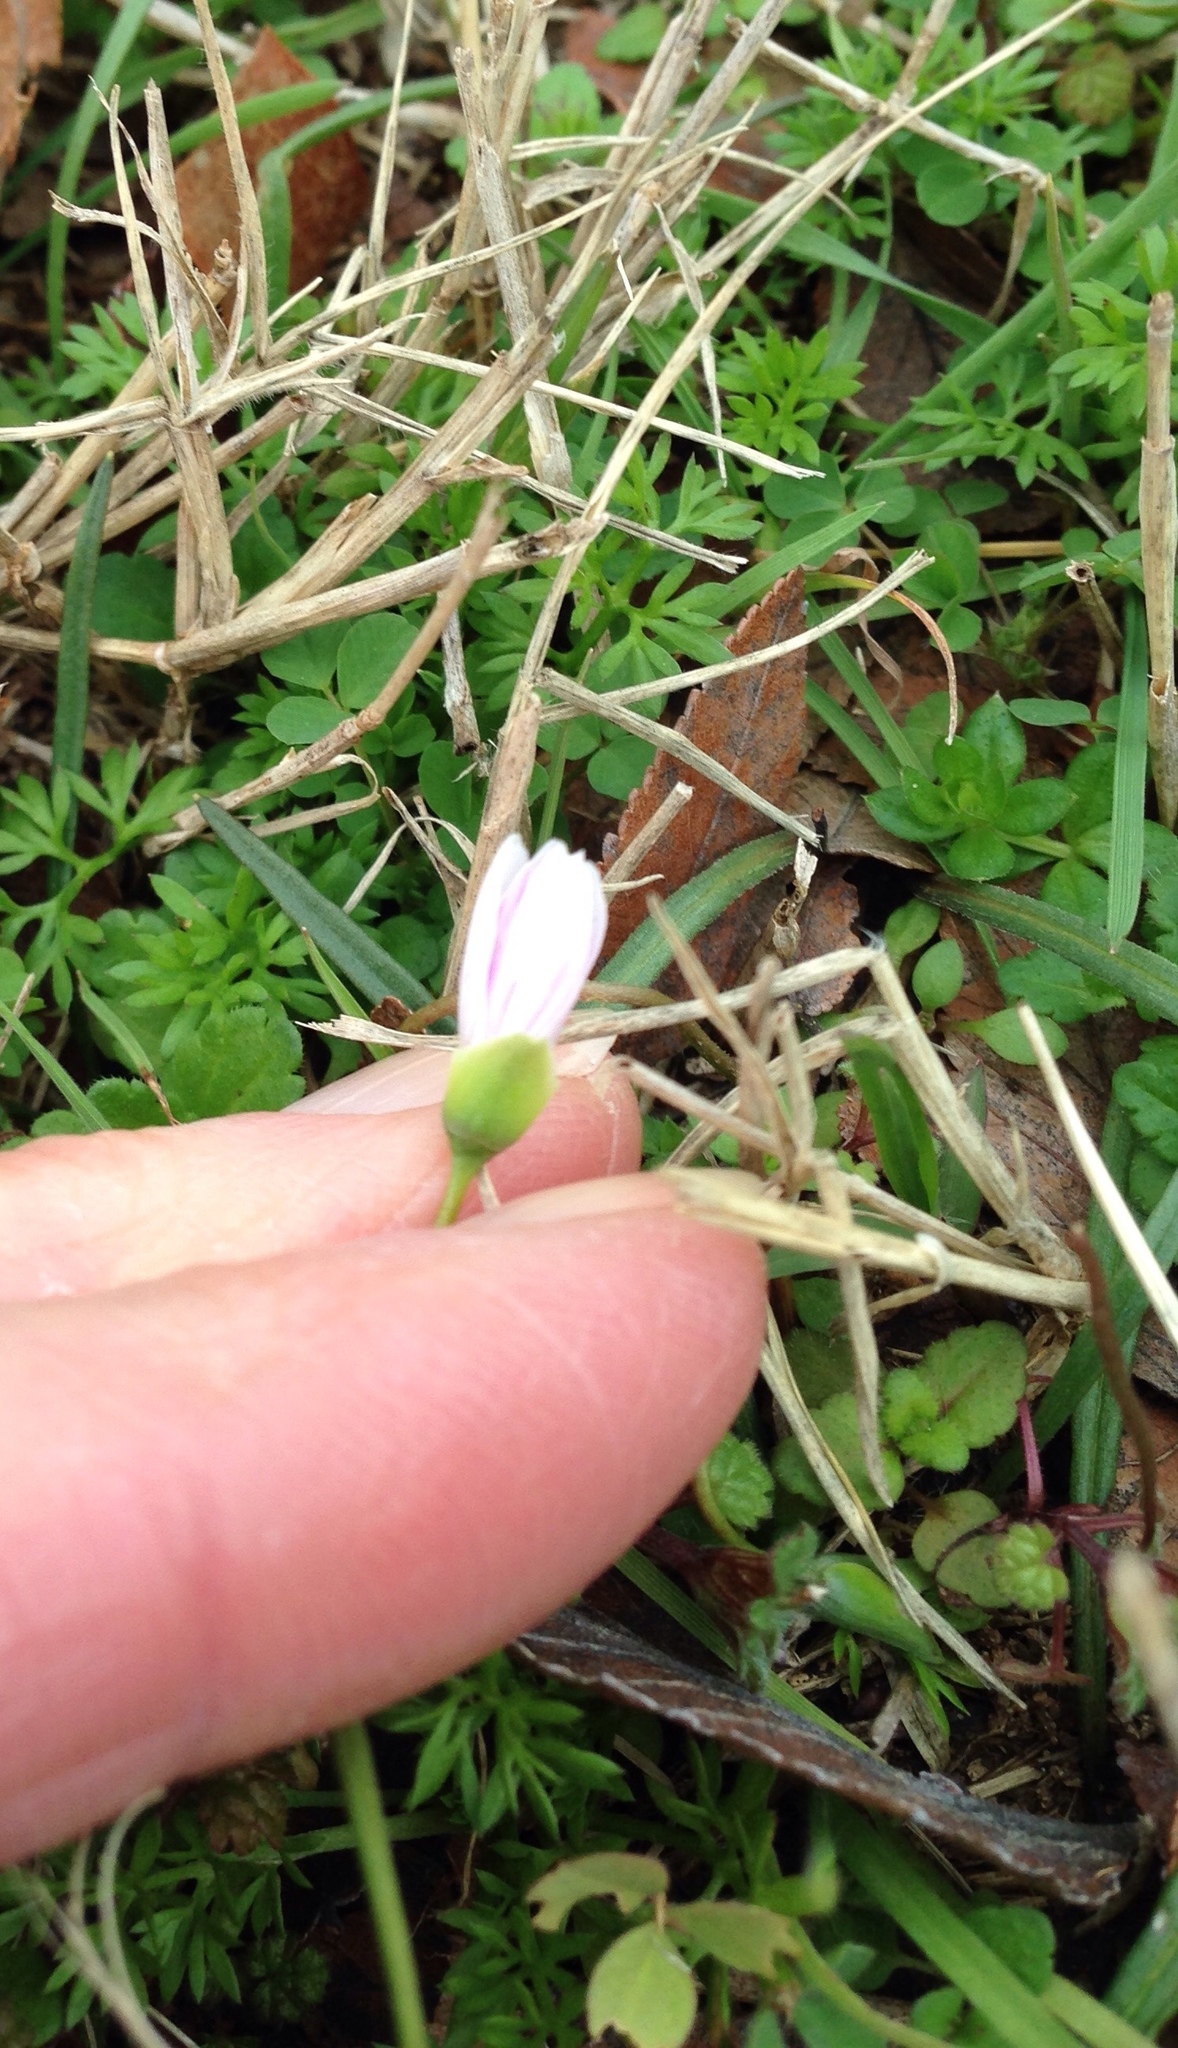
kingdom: Plantae
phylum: Tracheophyta
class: Magnoliopsida
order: Caryophyllales
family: Montiaceae
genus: Claytonia
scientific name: Claytonia virginica
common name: Virginia springbeauty
